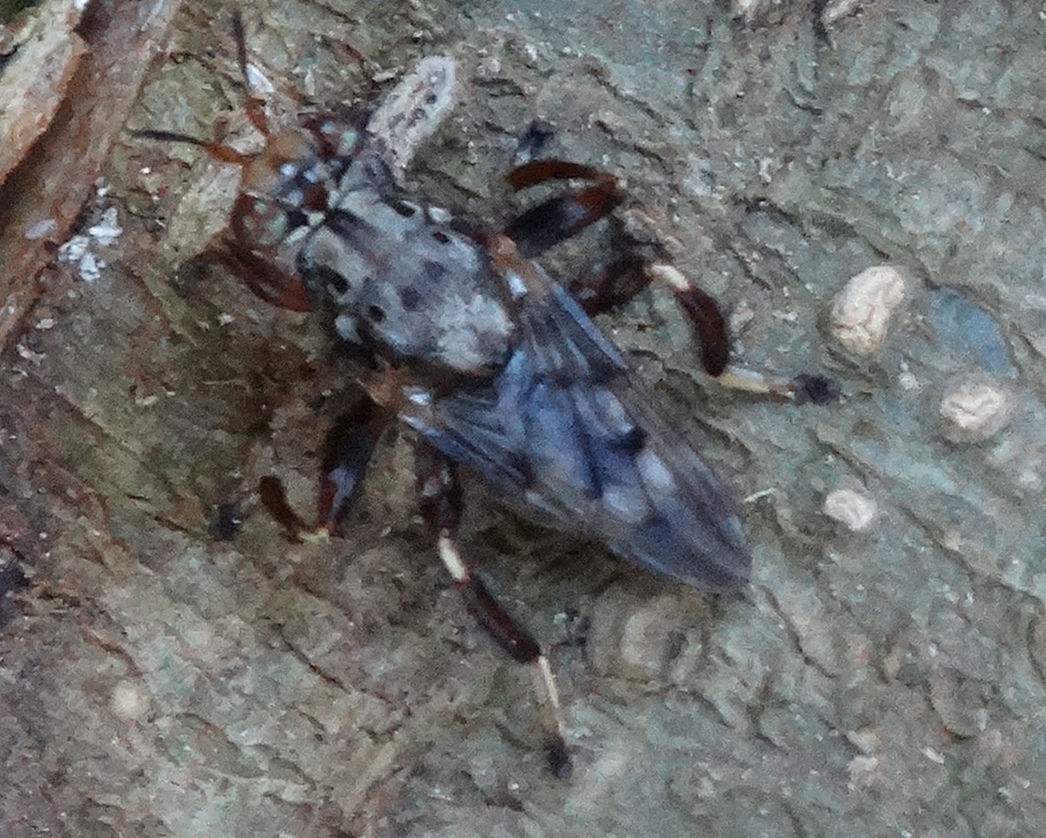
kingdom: Animalia
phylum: Arthropoda
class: Insecta
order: Diptera
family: Ropalomeridae
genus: Mexicoa
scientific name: Mexicoa mexicana
